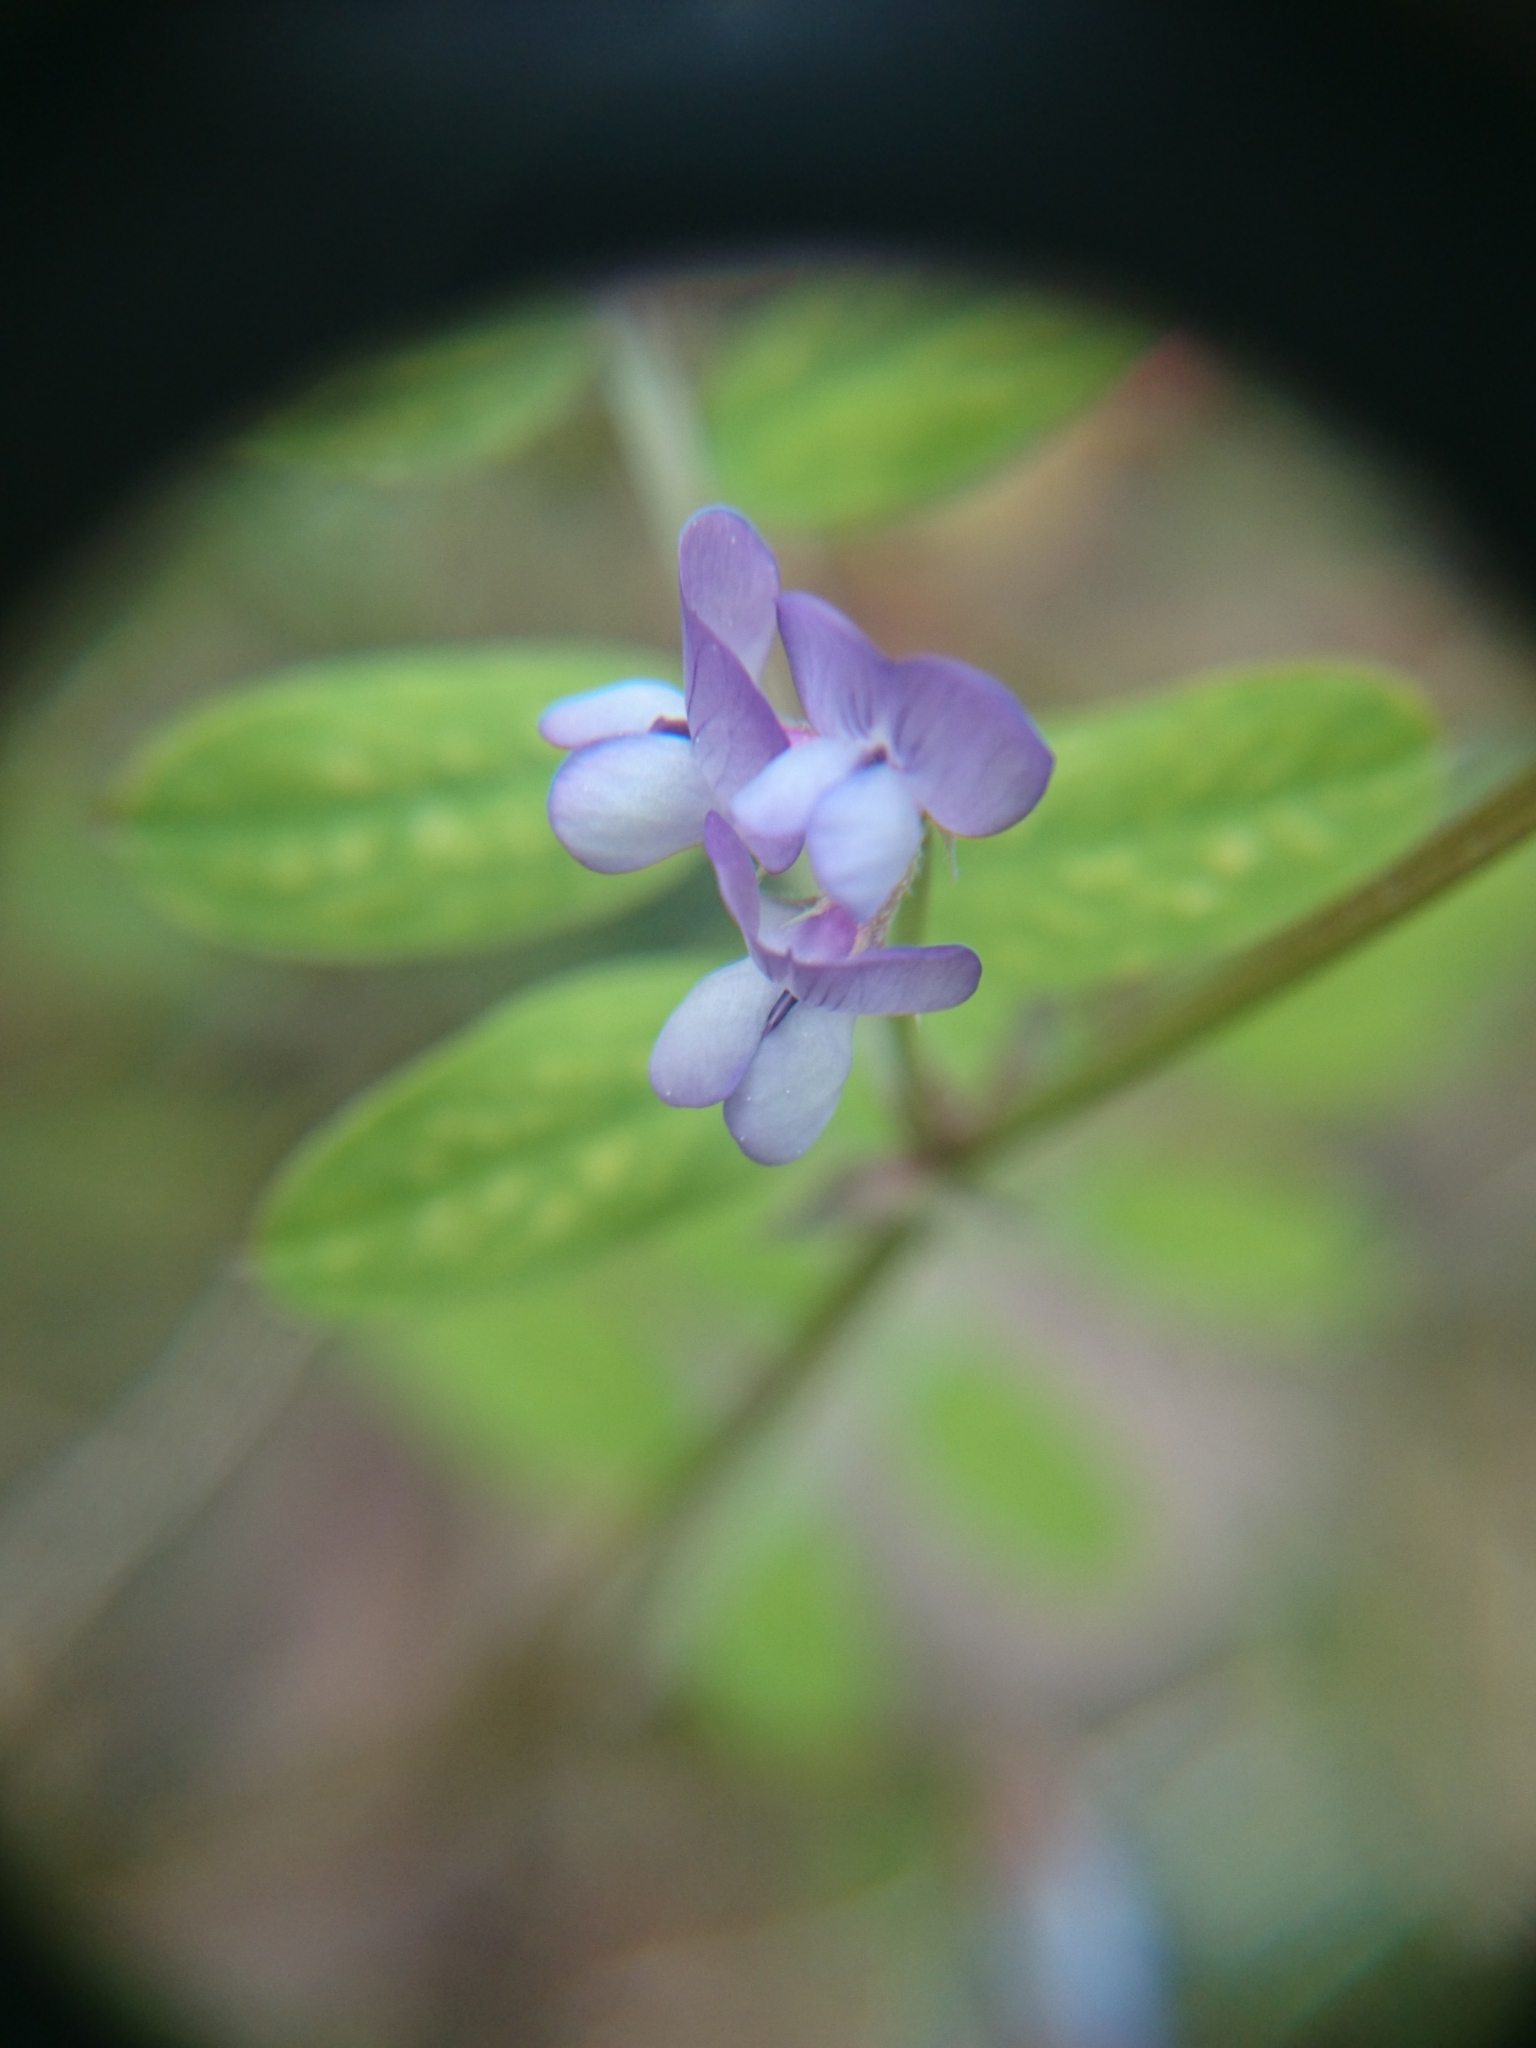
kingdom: Plantae
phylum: Tracheophyta
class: Magnoliopsida
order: Fabales
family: Fabaceae
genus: Vicia
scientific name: Vicia ludoviciana
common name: Louisiana vetch
